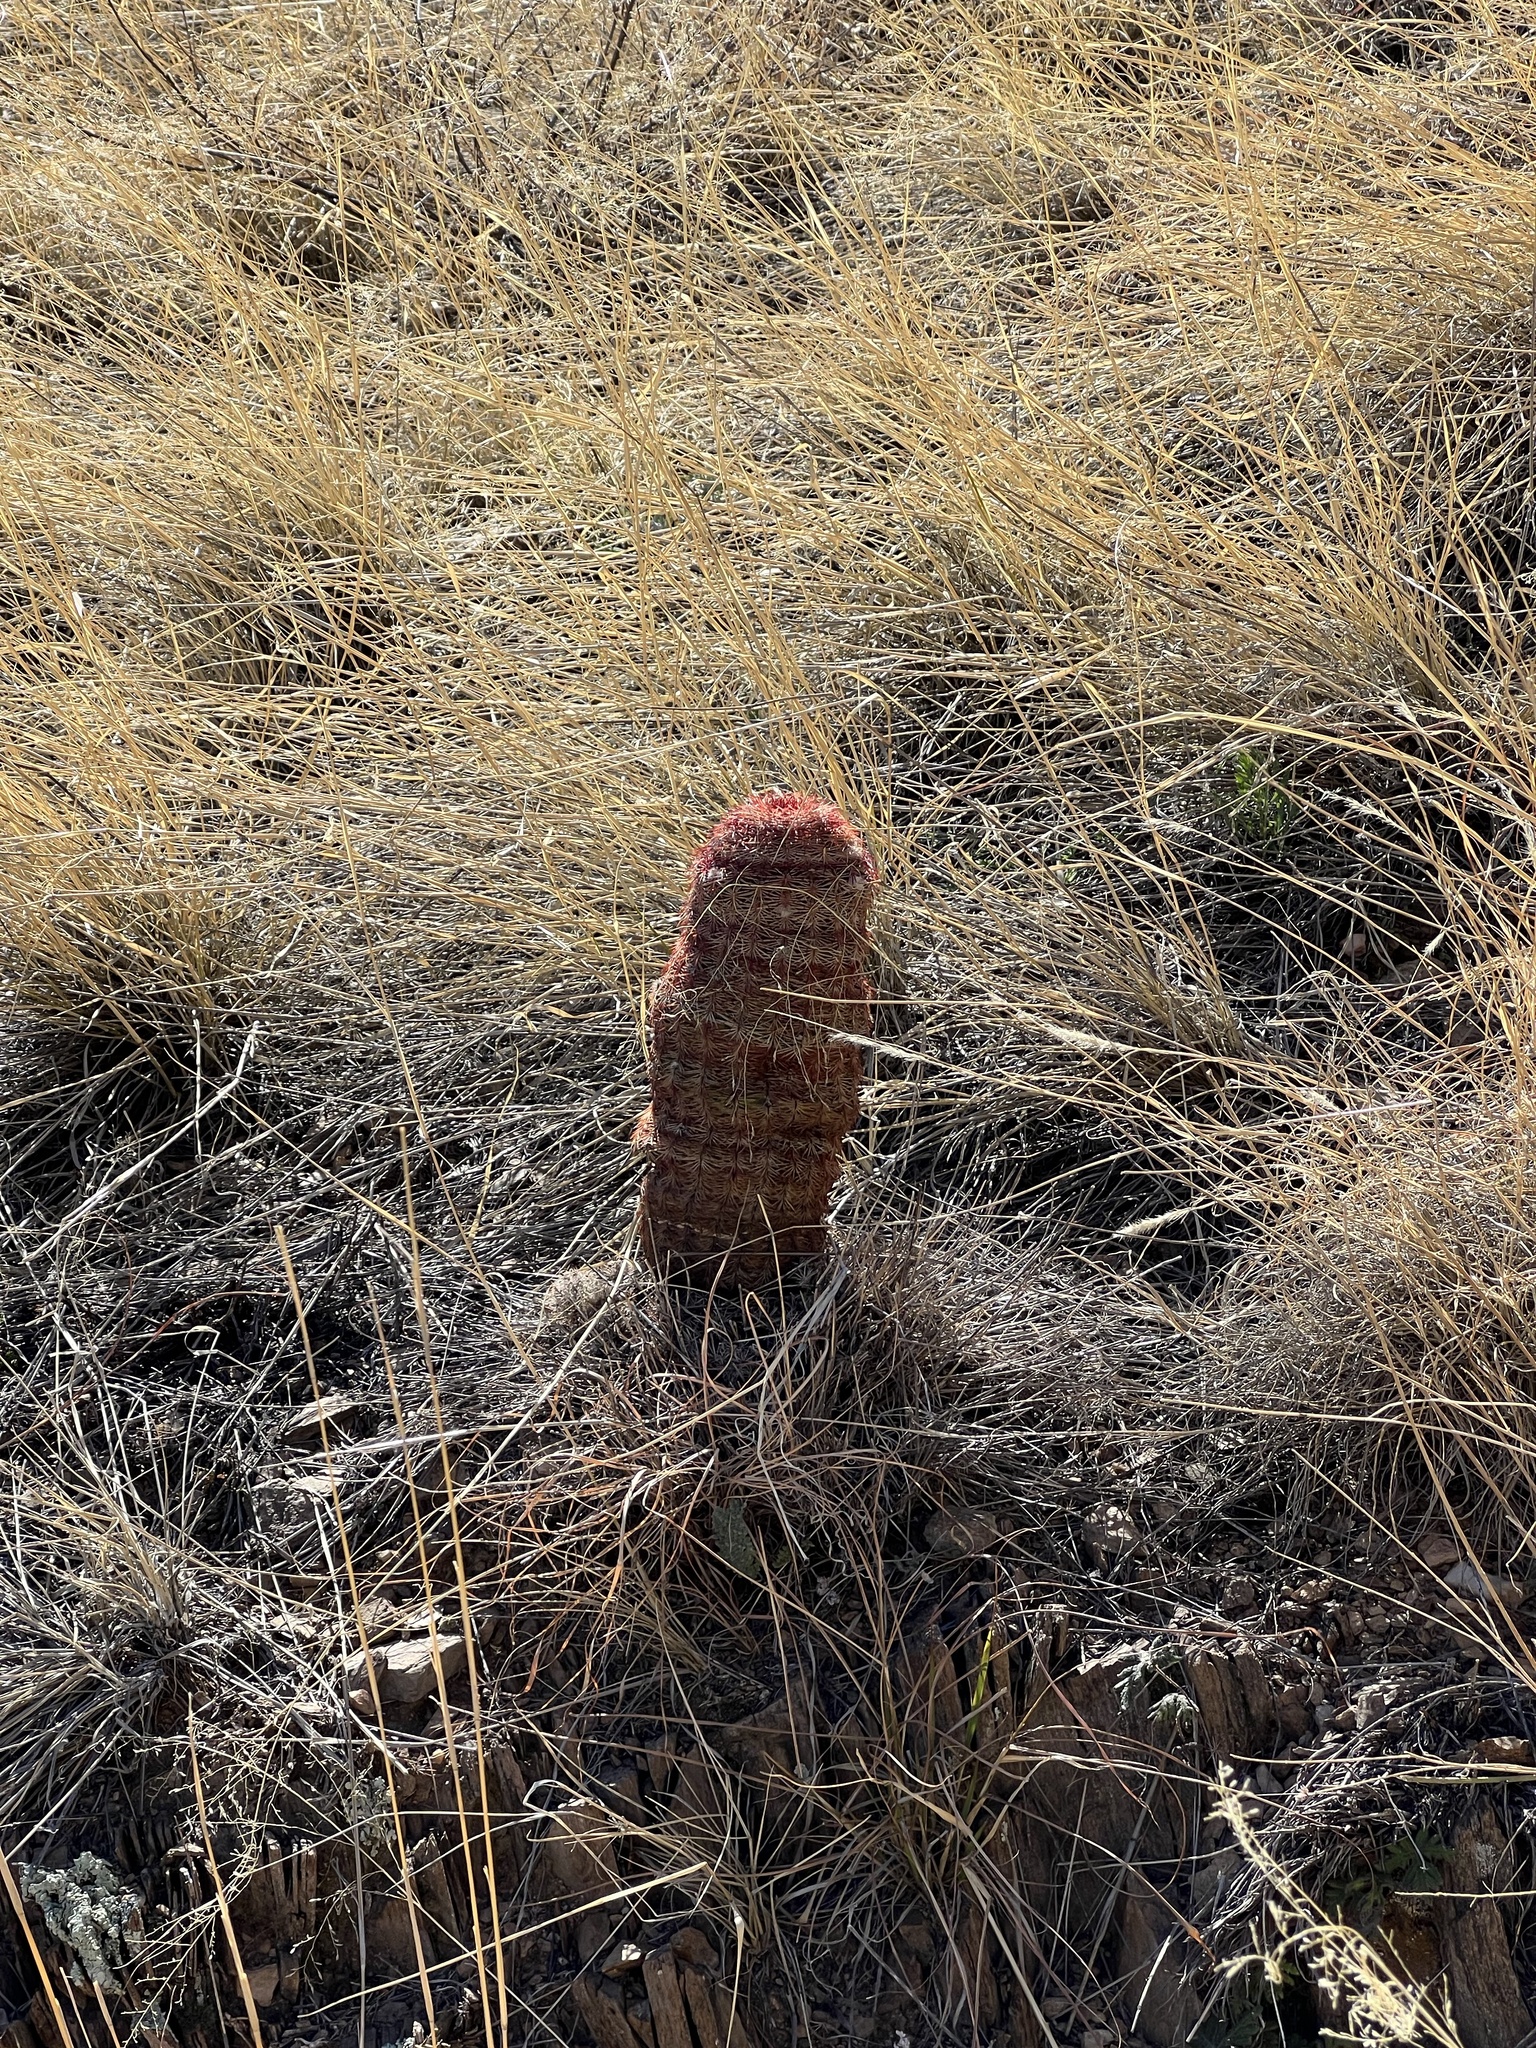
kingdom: Plantae
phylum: Tracheophyta
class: Magnoliopsida
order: Caryophyllales
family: Cactaceae
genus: Echinocereus
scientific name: Echinocereus rigidissimus
